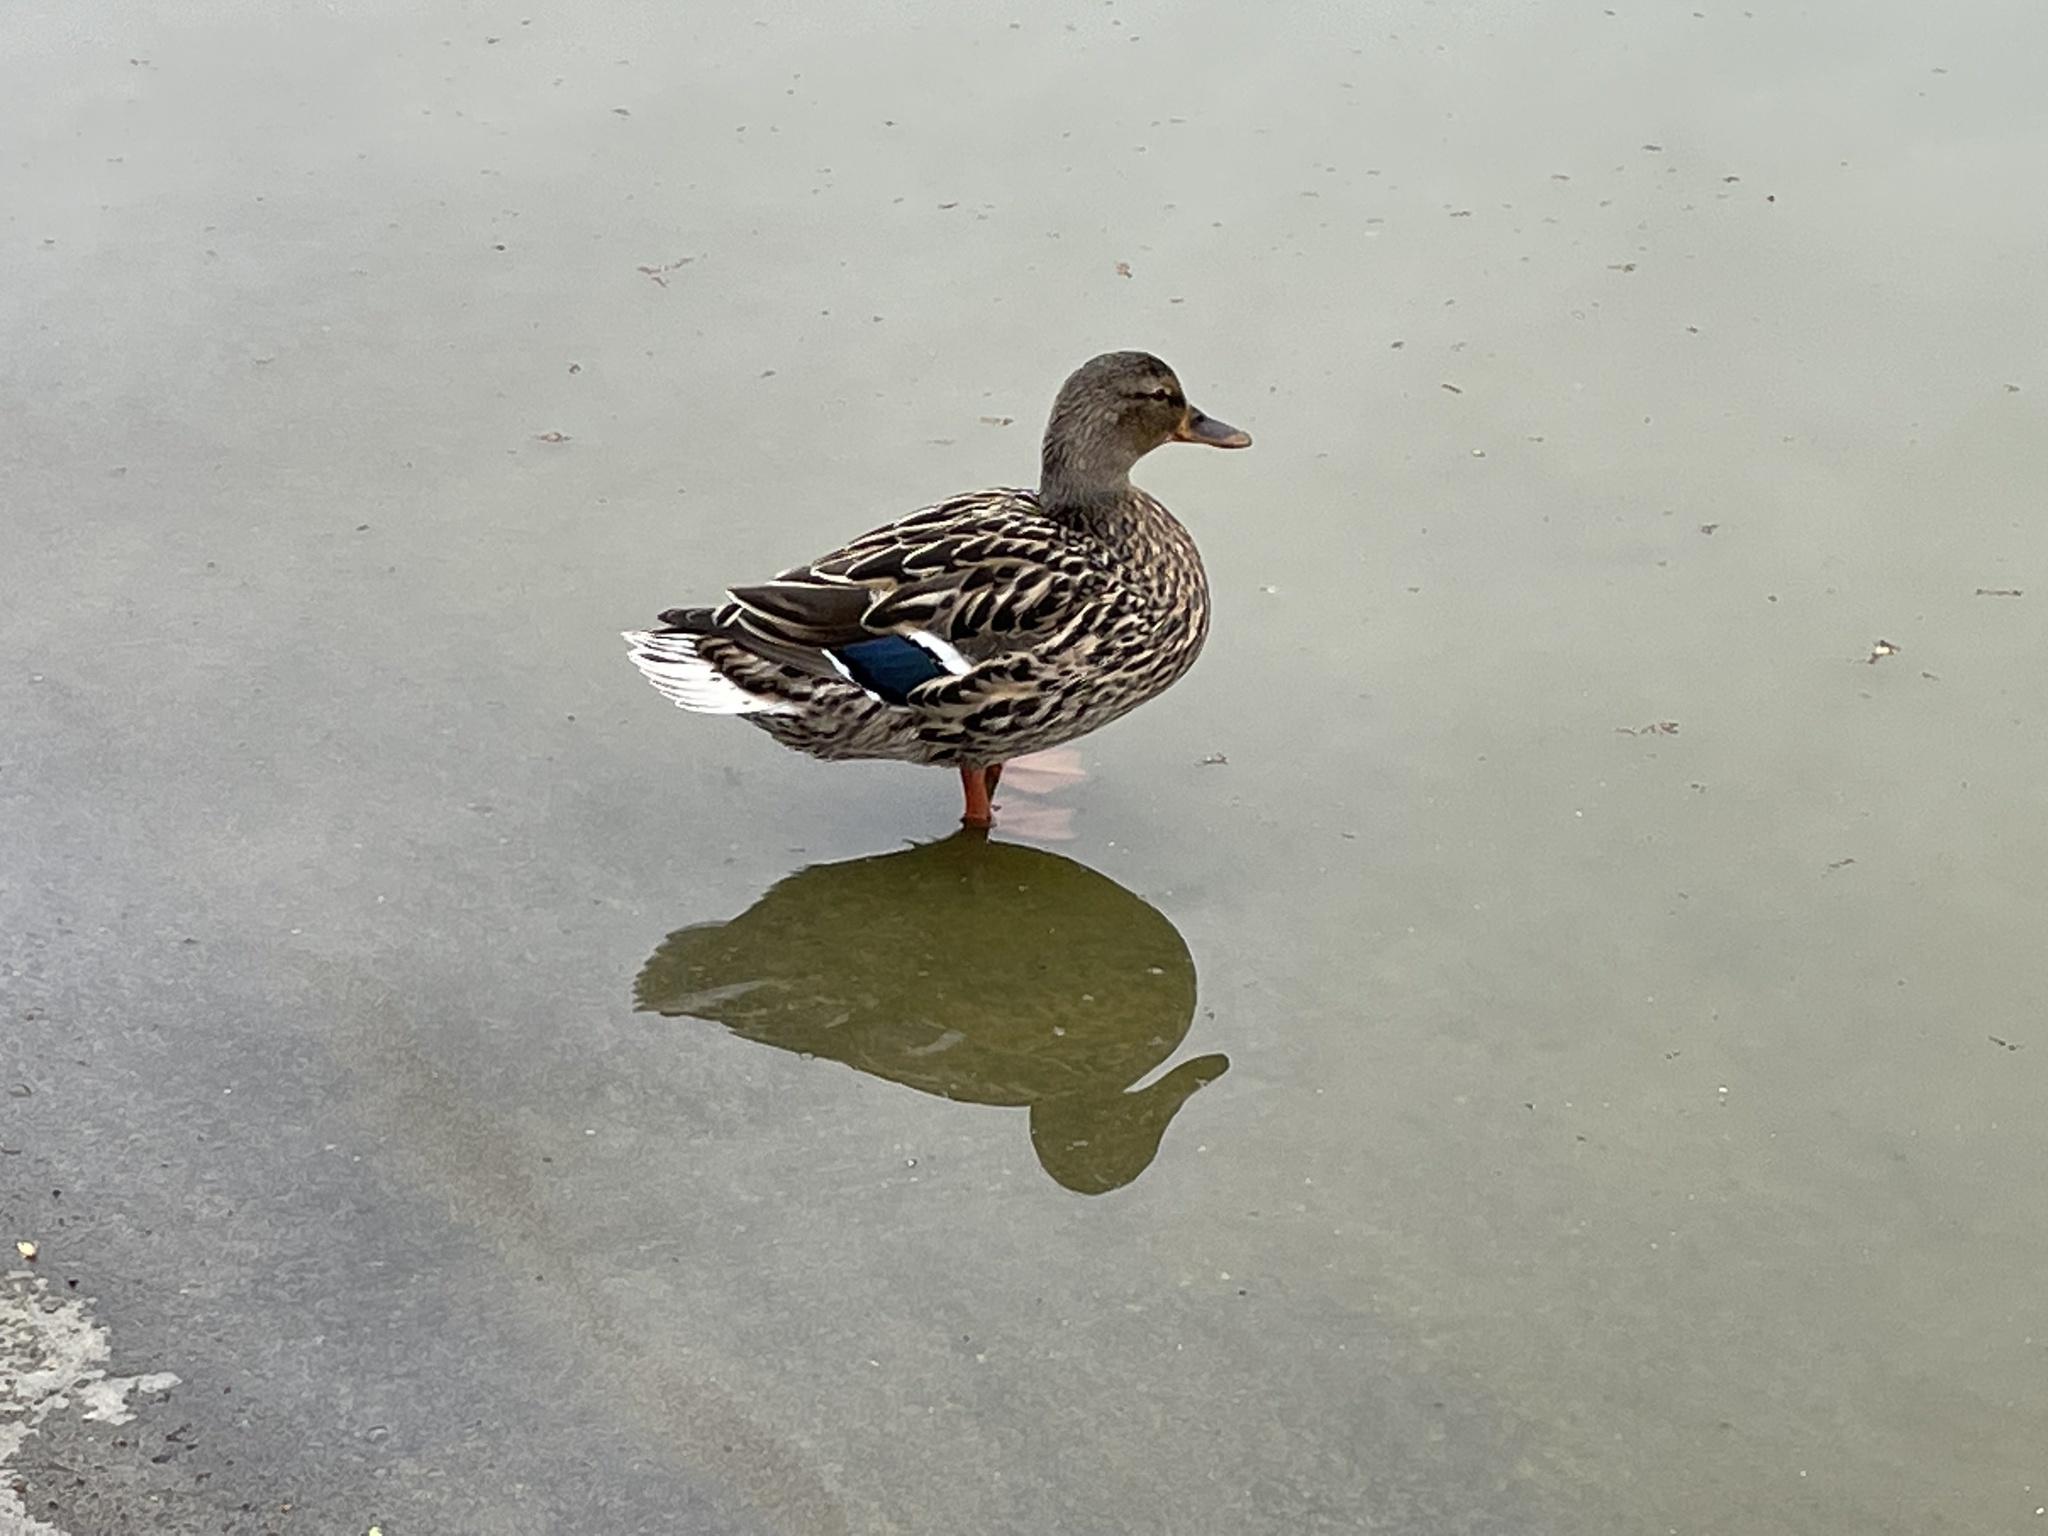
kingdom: Animalia
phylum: Chordata
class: Aves
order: Anseriformes
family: Anatidae
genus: Anas
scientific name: Anas platyrhynchos
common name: Mallard
